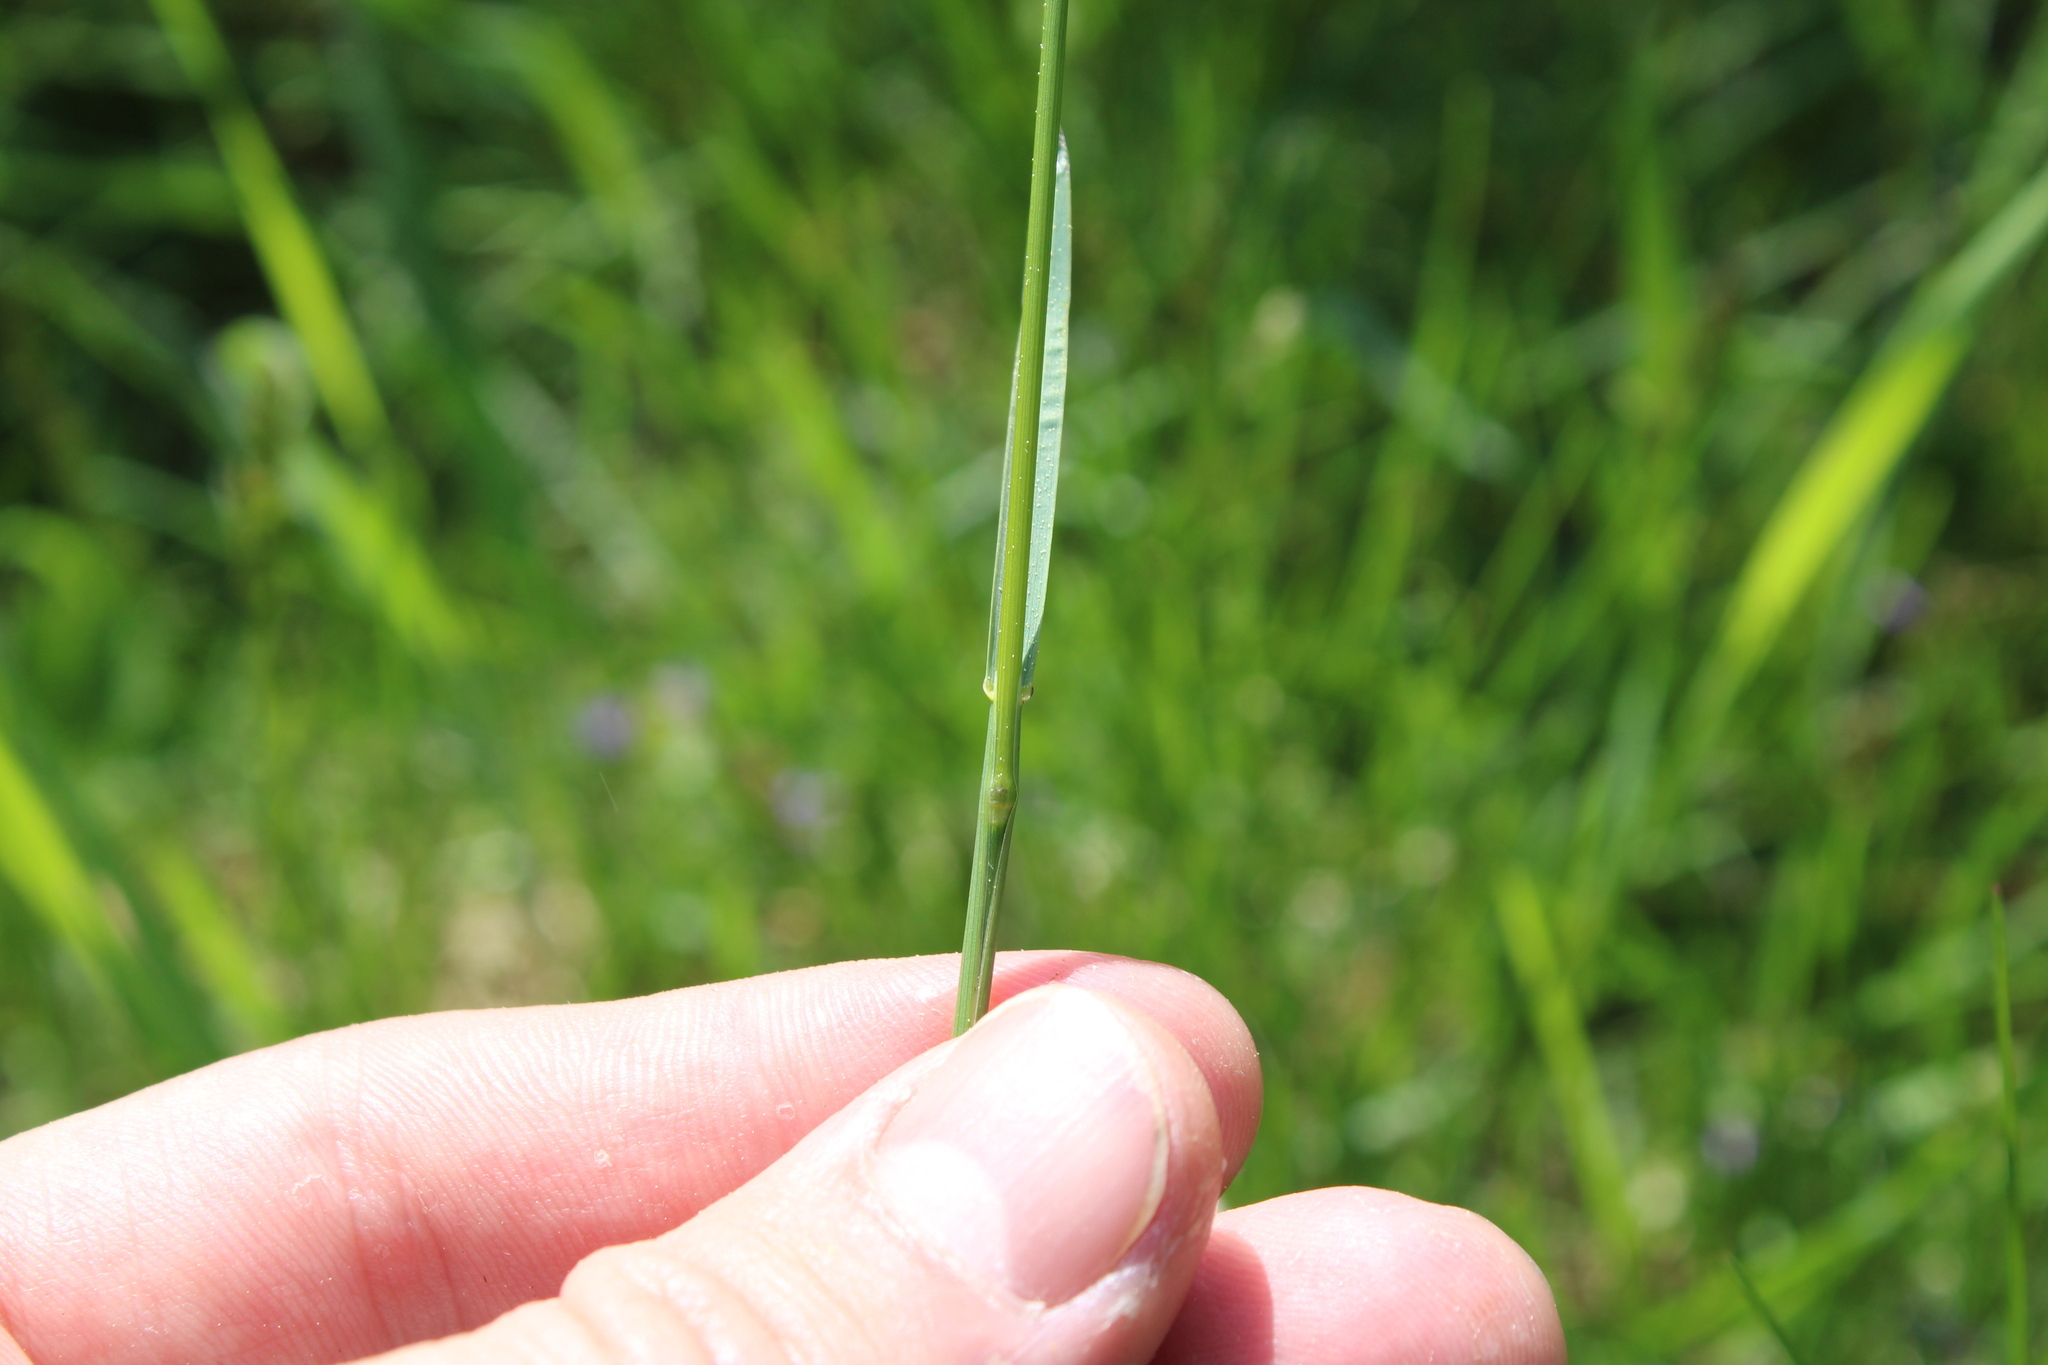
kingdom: Plantae
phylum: Tracheophyta
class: Liliopsida
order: Poales
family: Poaceae
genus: Poa
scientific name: Poa pratensis
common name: Kentucky bluegrass
